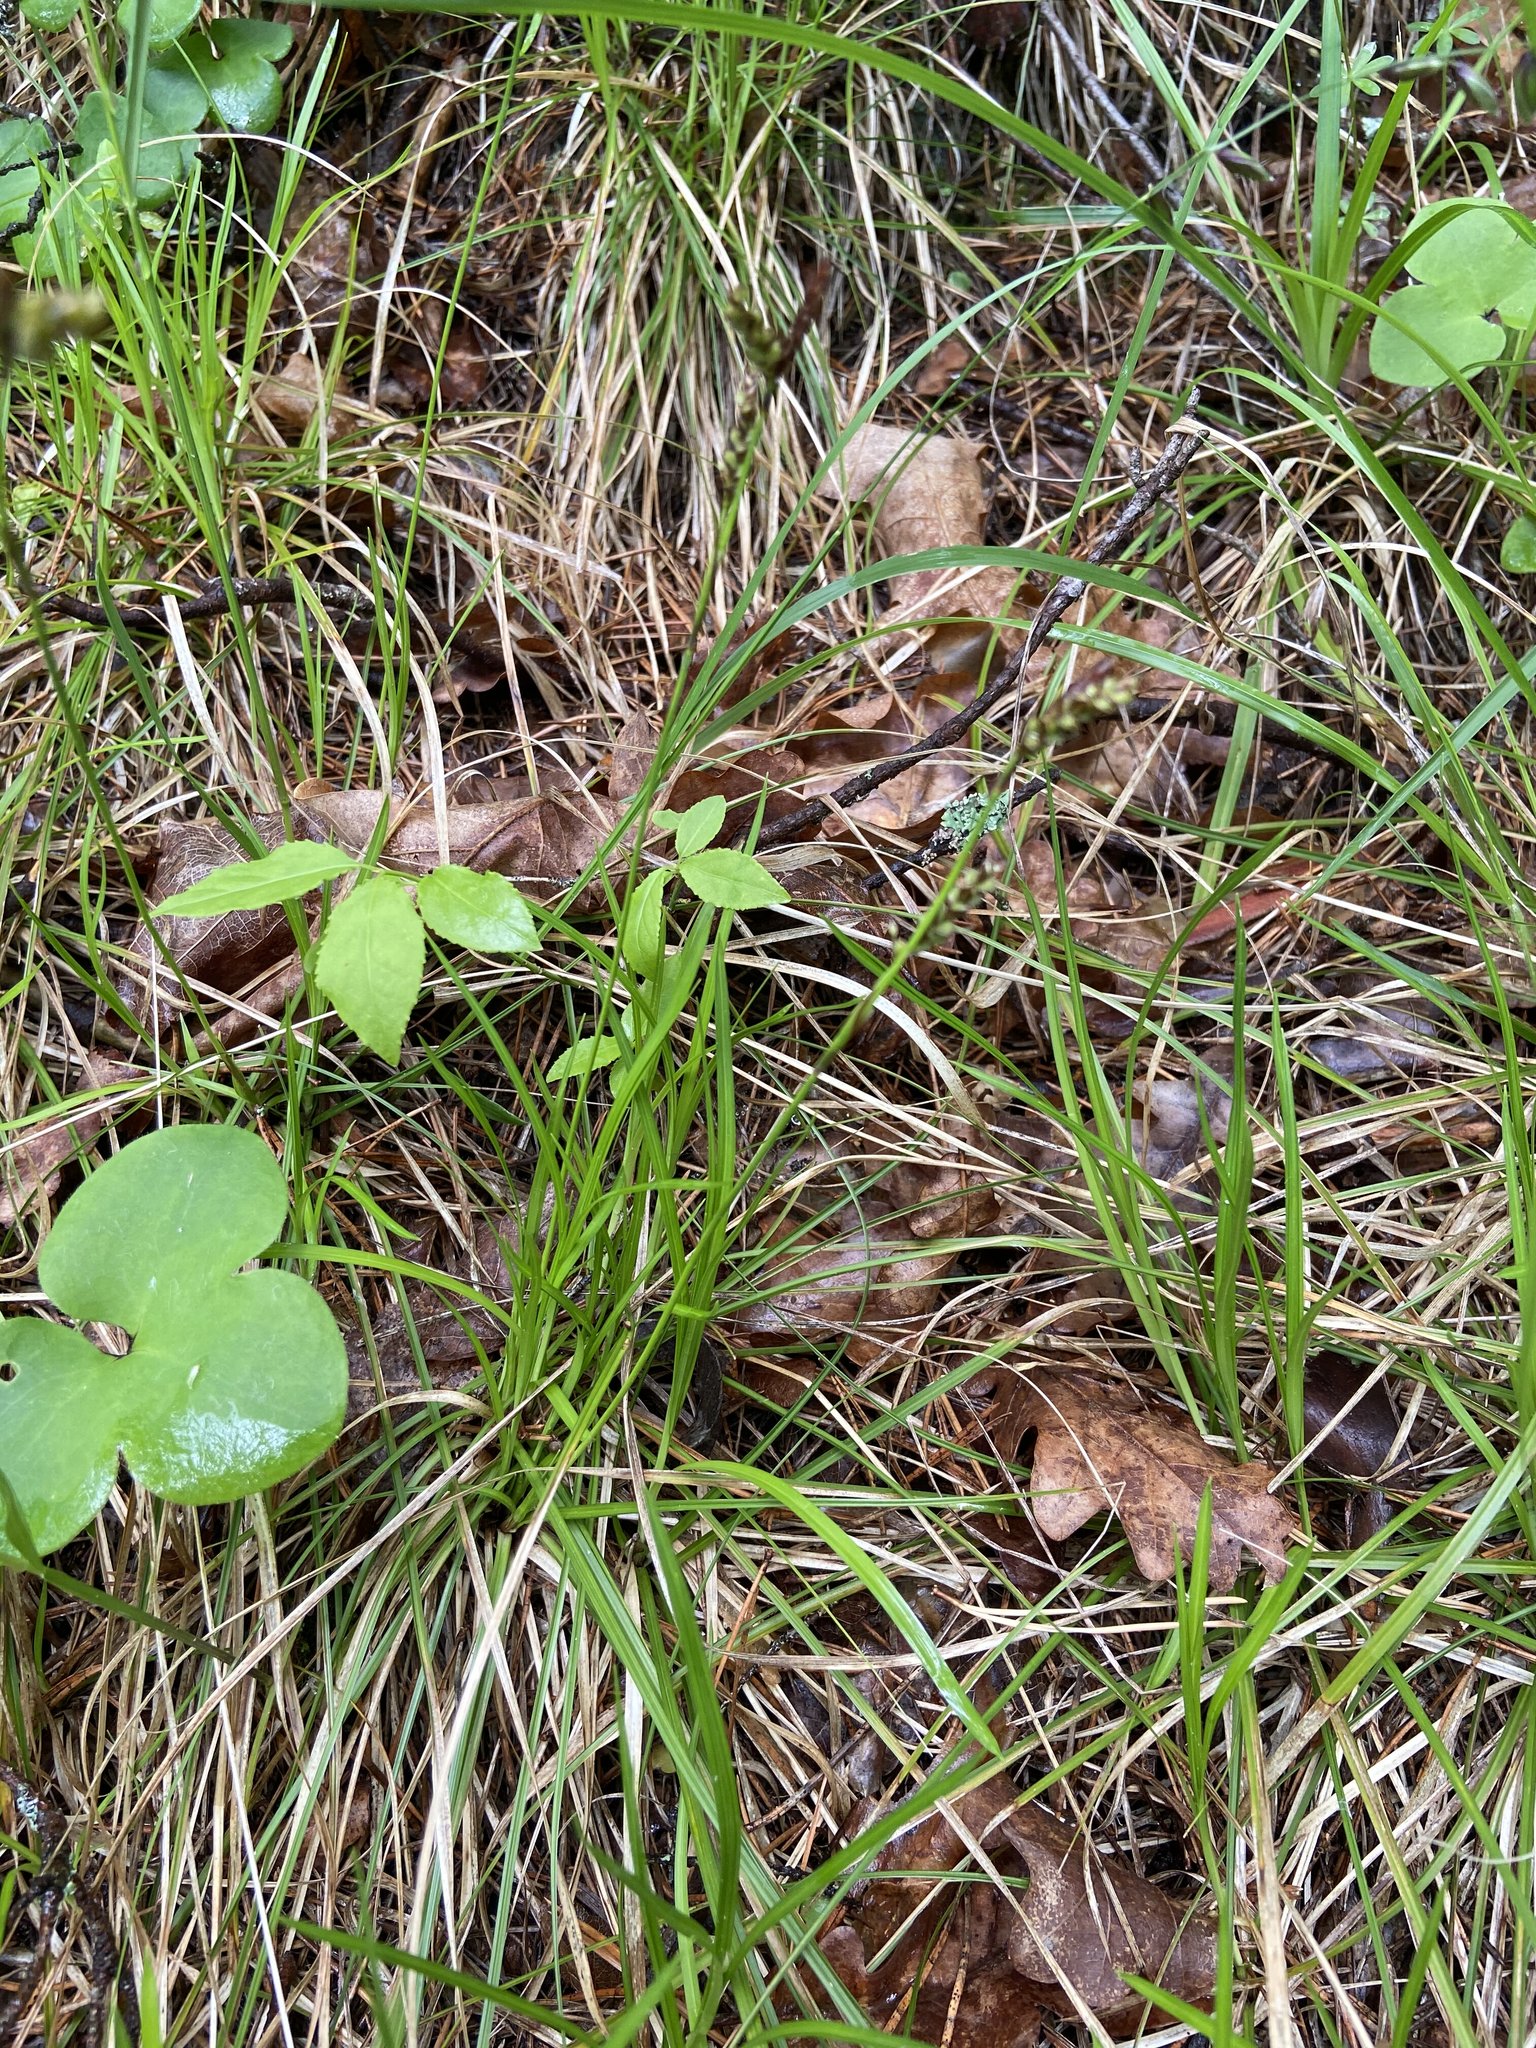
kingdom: Plantae
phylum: Tracheophyta
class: Liliopsida
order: Poales
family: Cyperaceae
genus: Carex
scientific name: Carex rhizina
